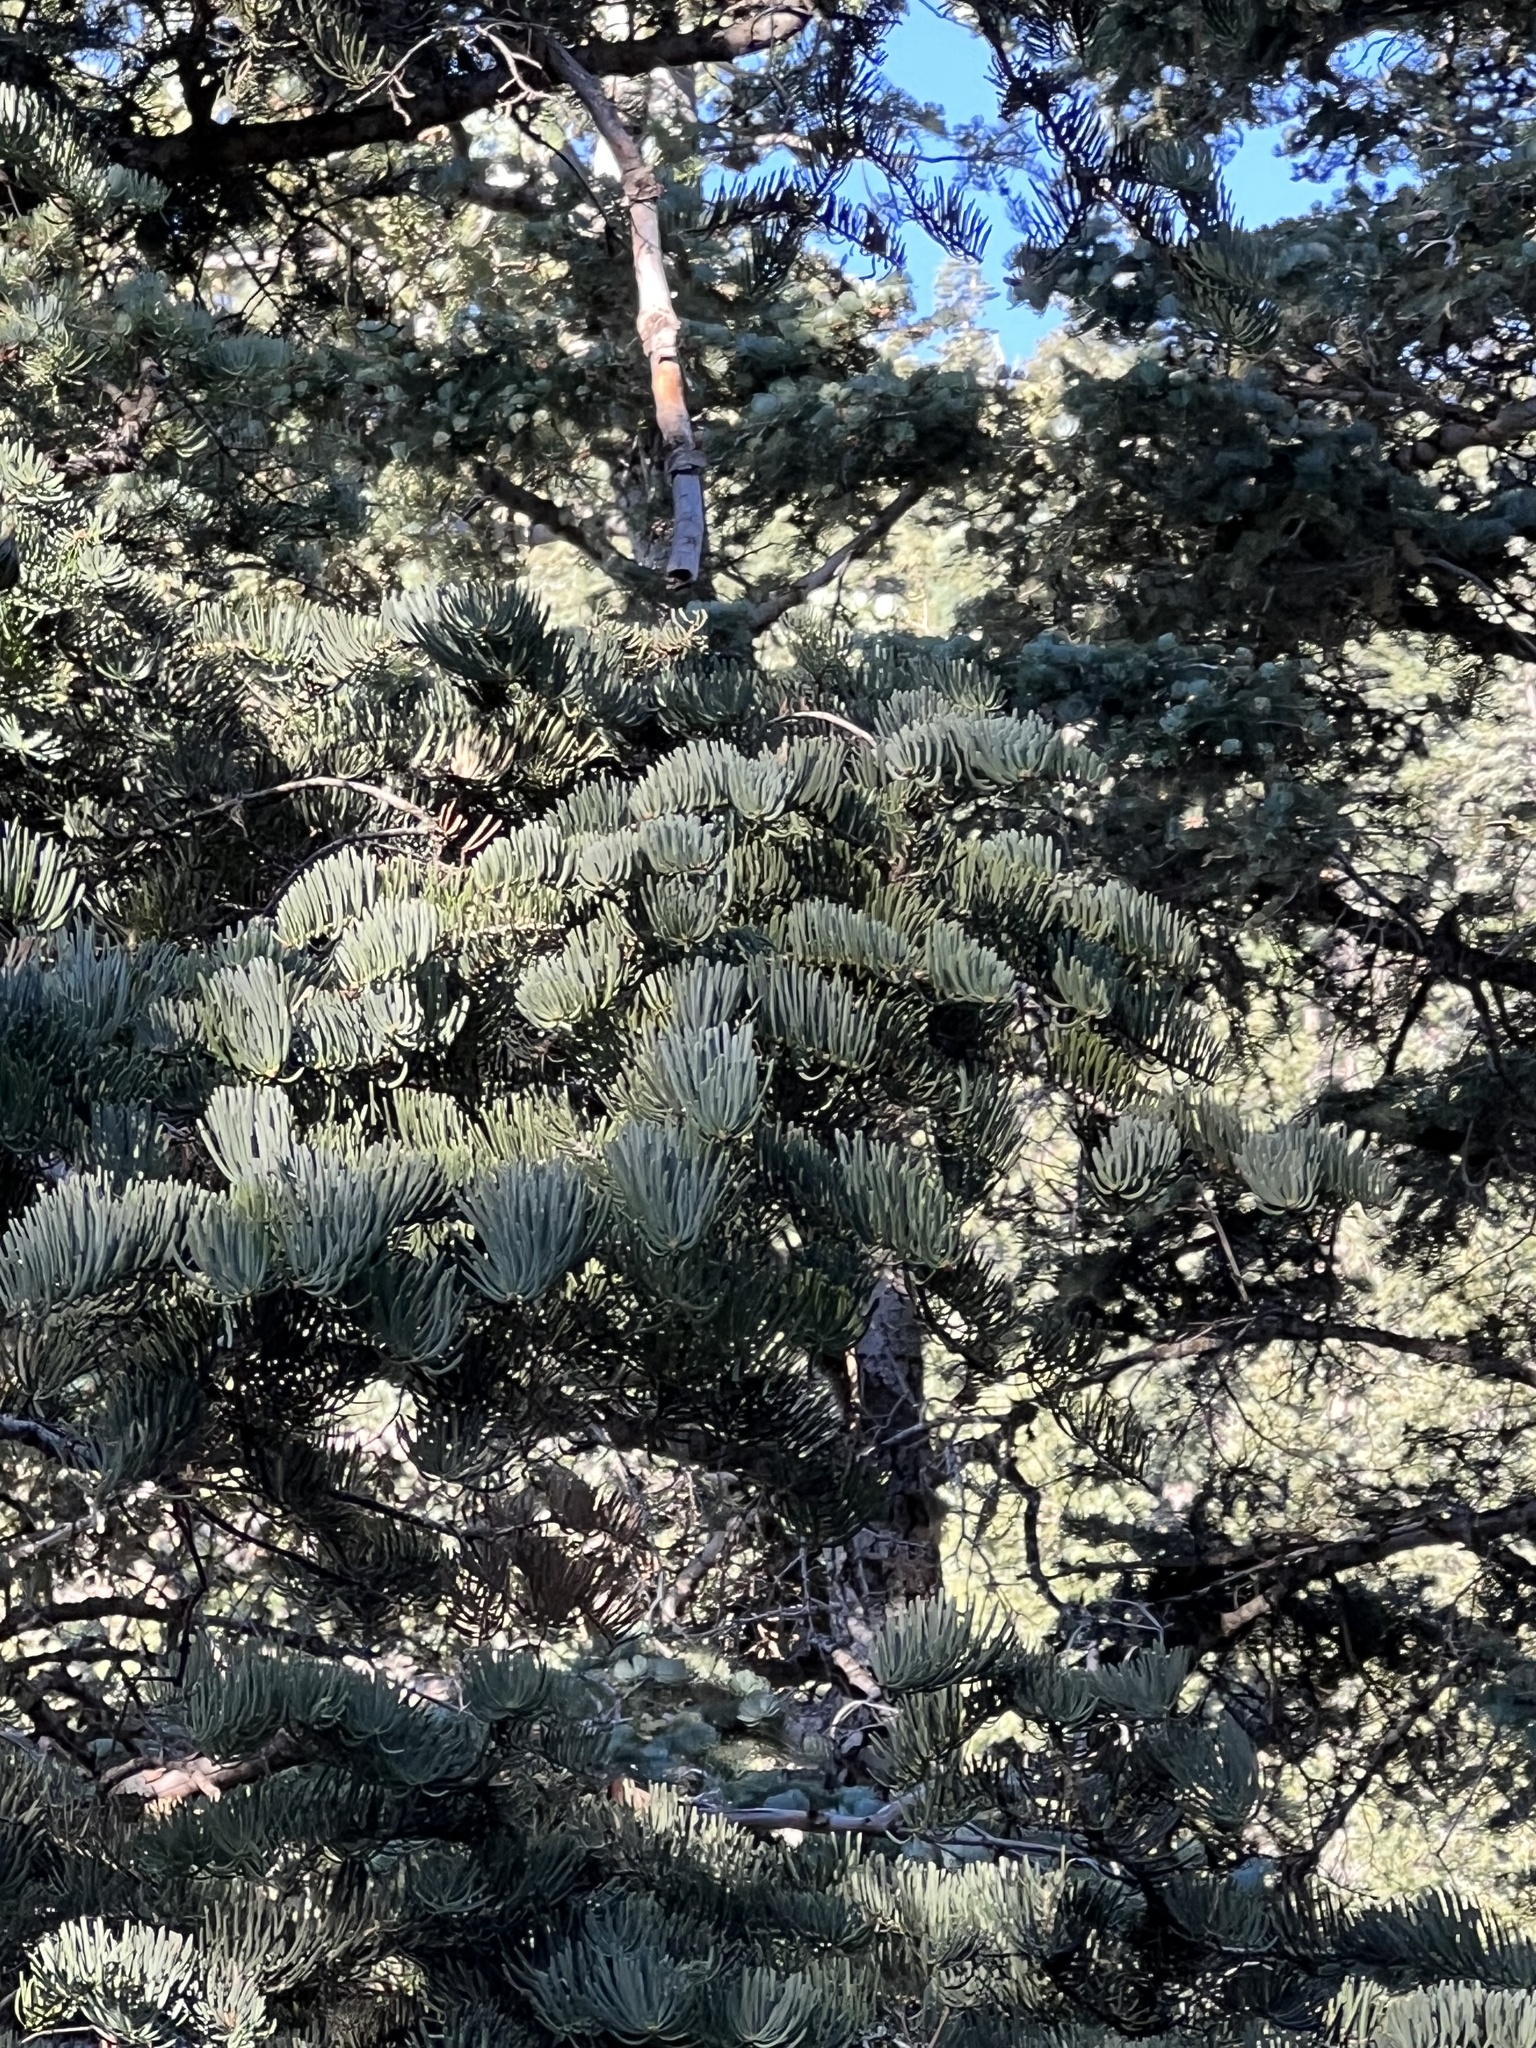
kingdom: Plantae
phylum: Tracheophyta
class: Pinopsida
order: Pinales
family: Pinaceae
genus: Abies
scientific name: Abies concolor
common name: Colorado fir
